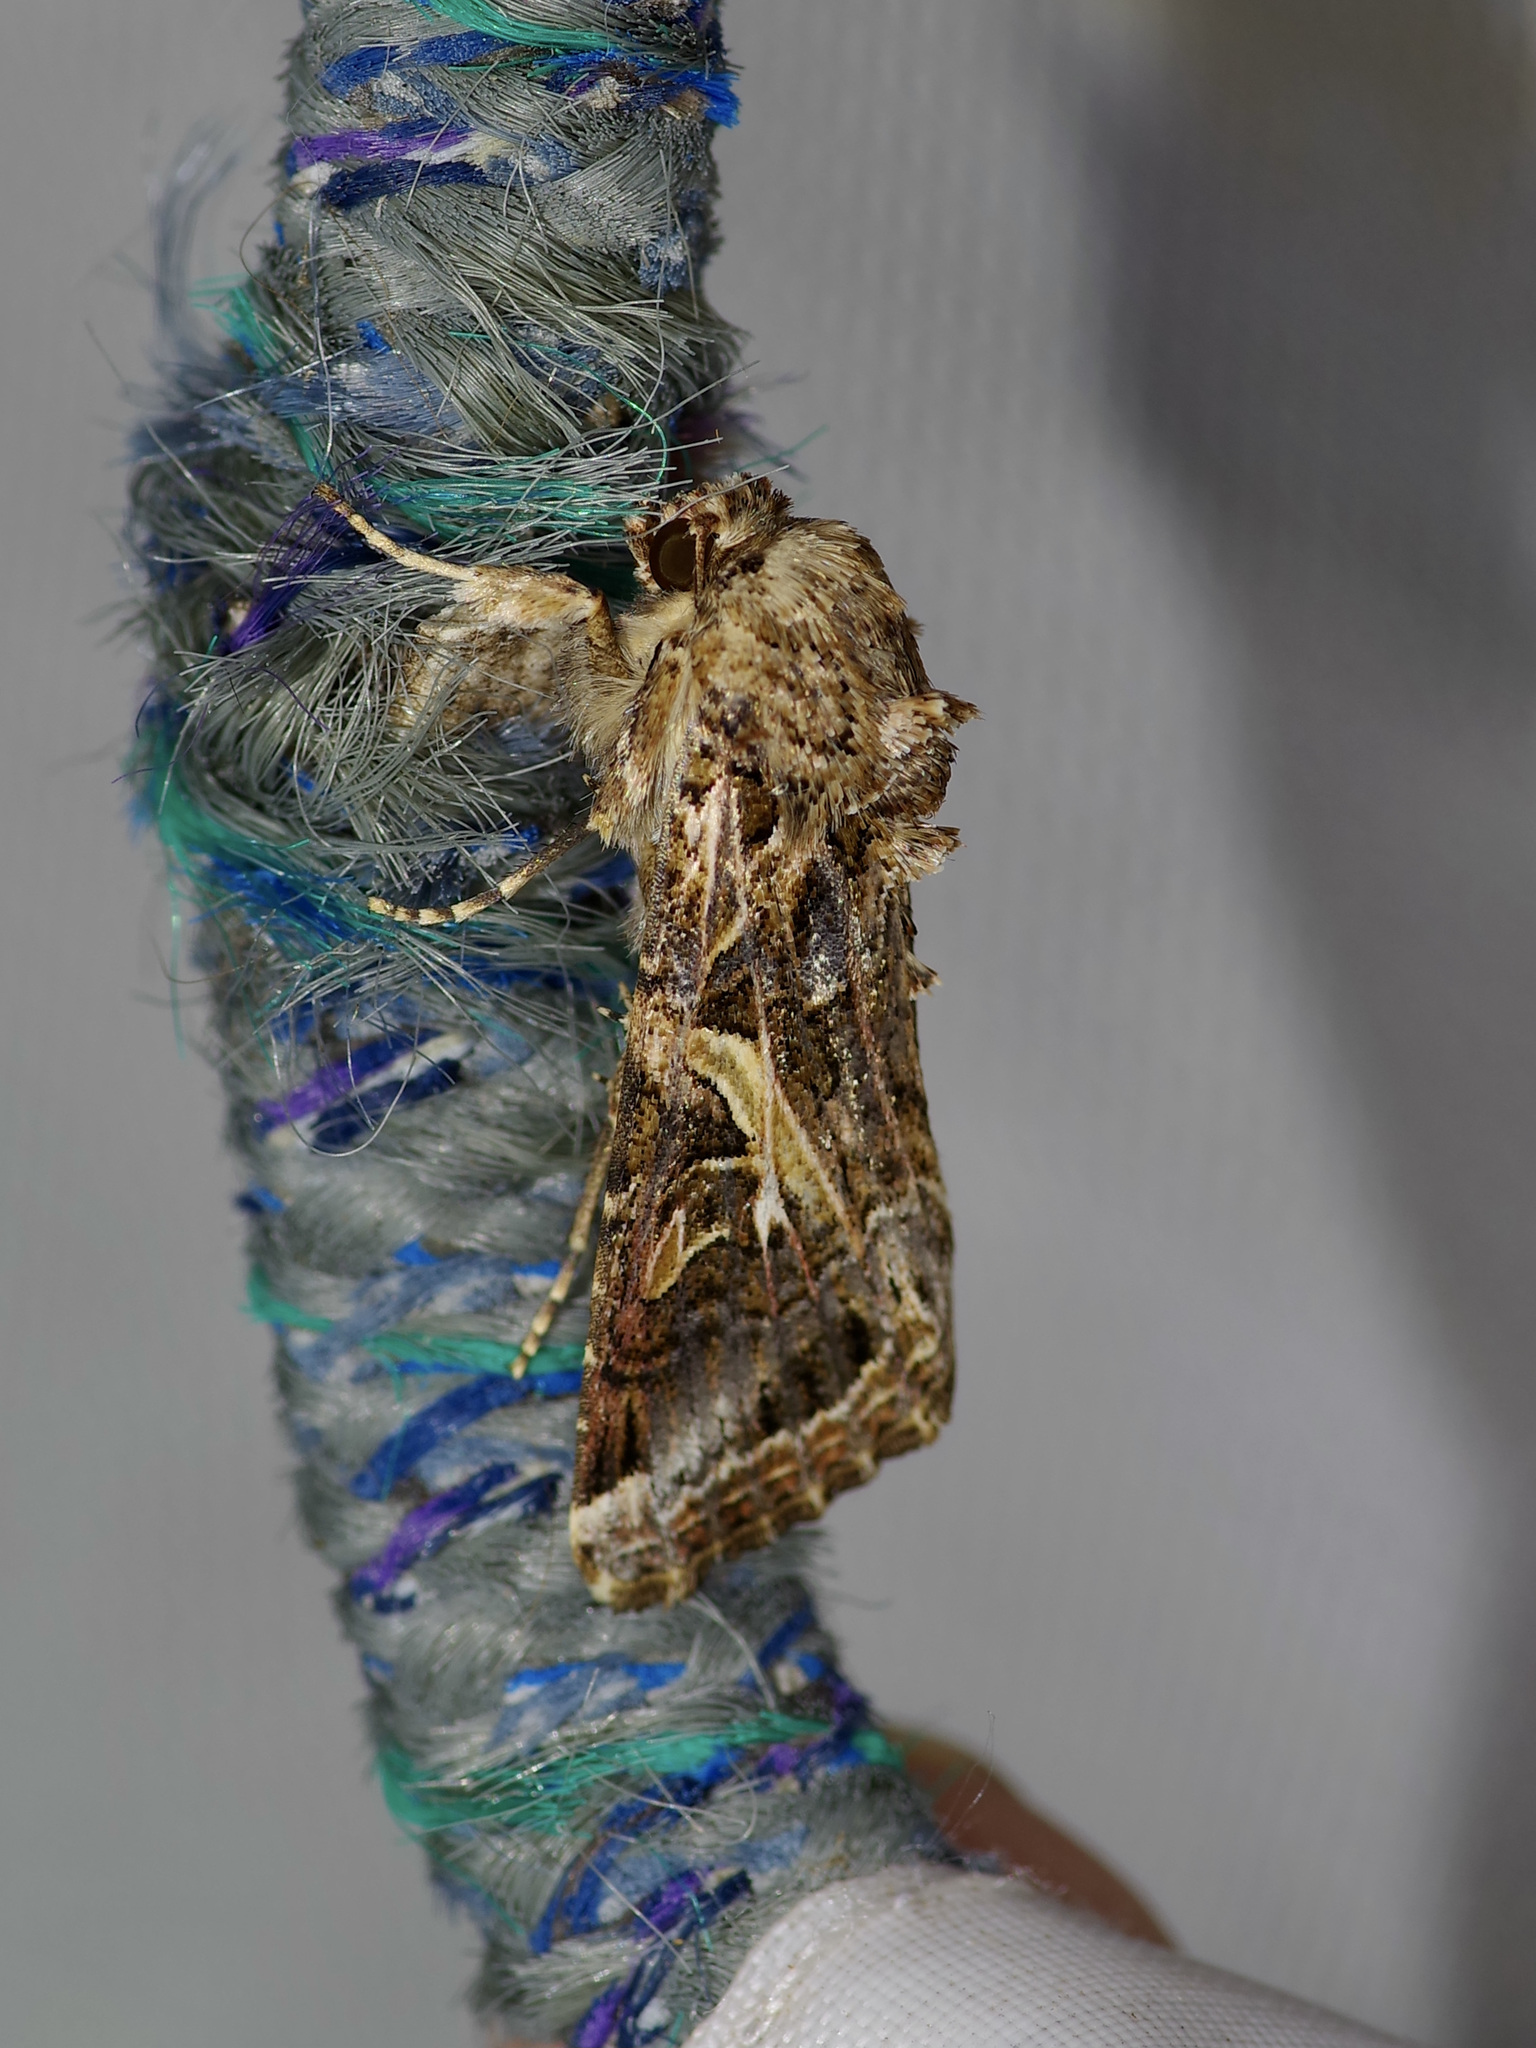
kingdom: Animalia
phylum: Arthropoda
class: Insecta
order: Lepidoptera
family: Noctuidae
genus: Spodoptera
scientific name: Spodoptera ornithogalli
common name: Yellow-striped armyworm
